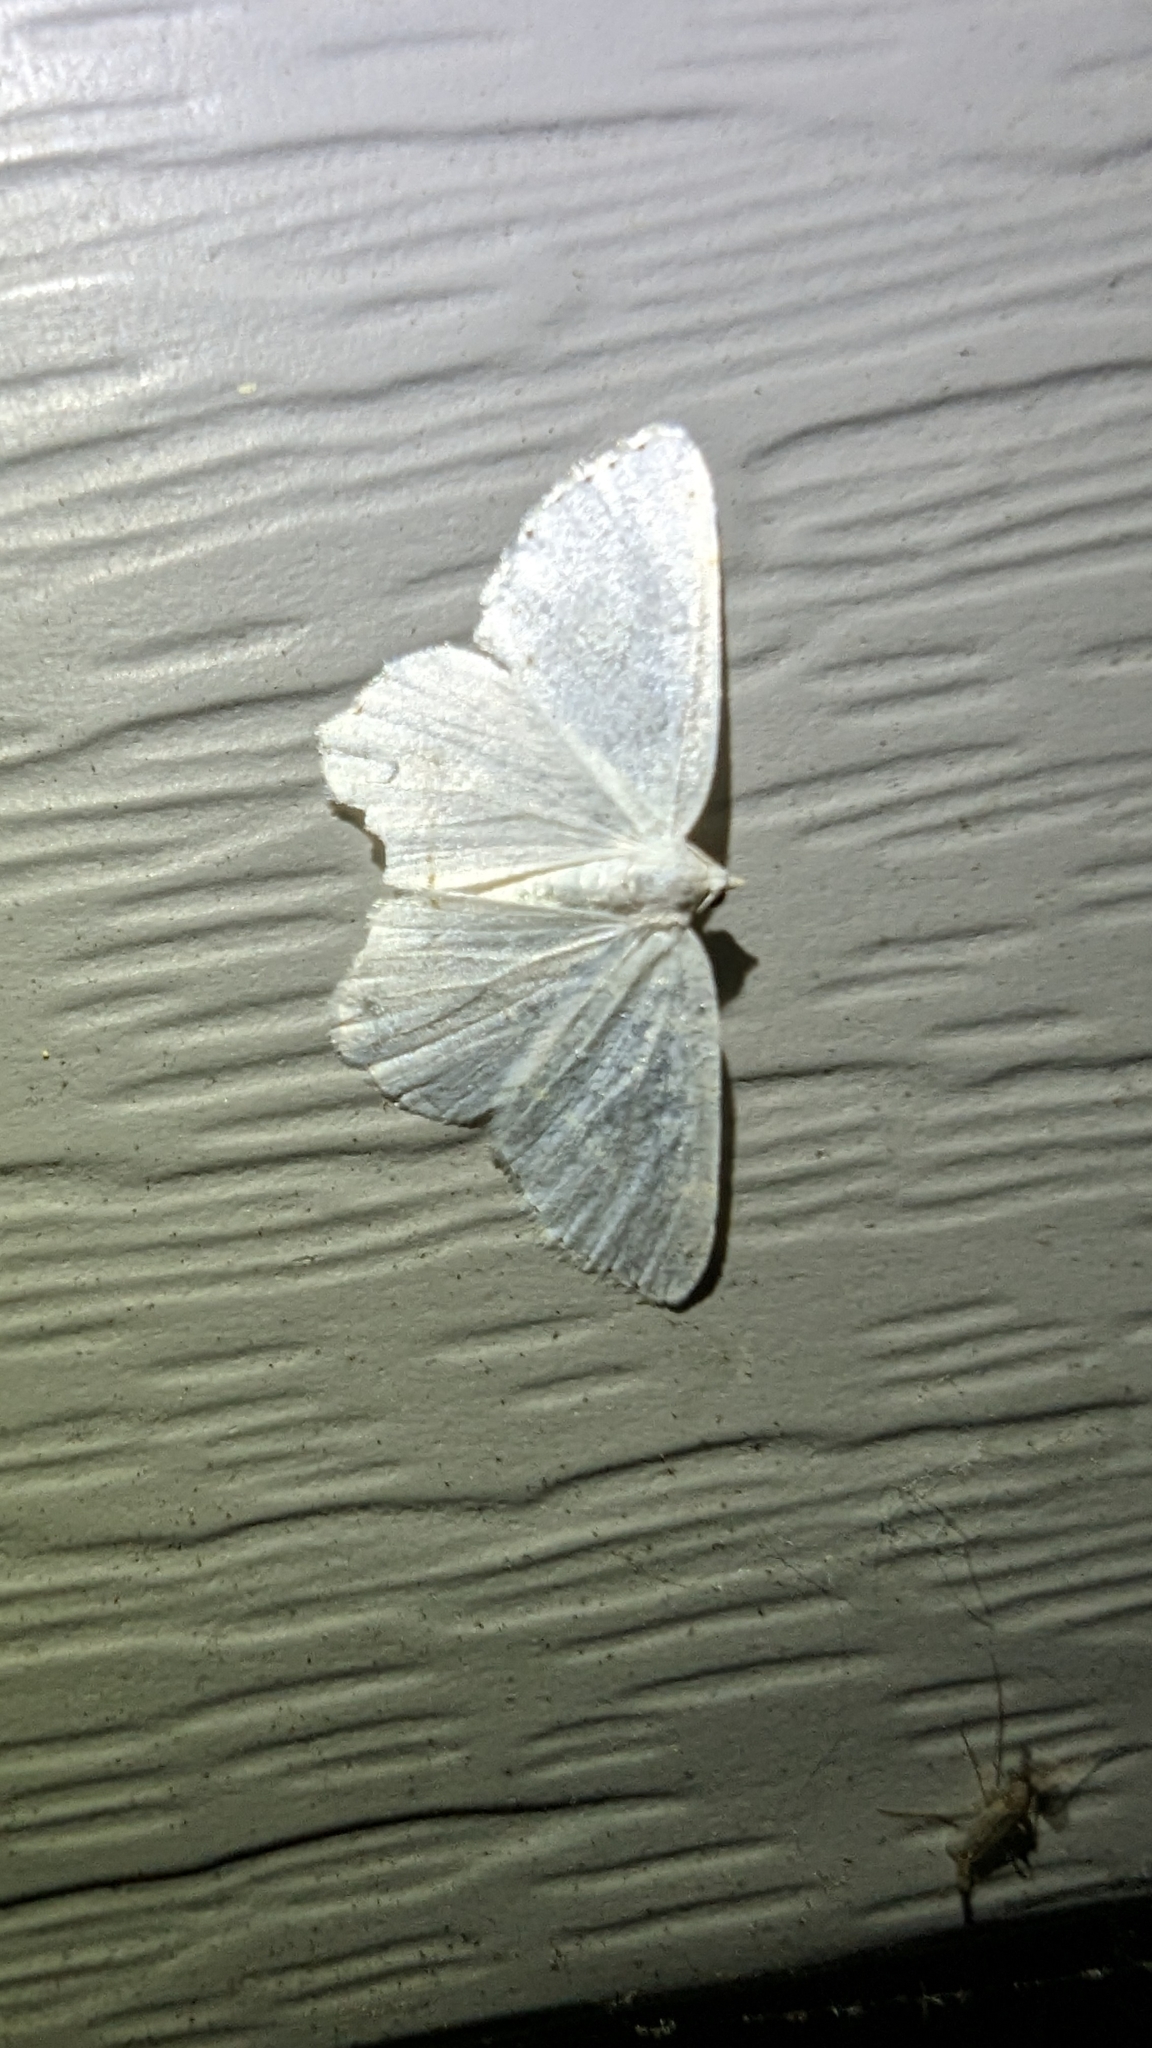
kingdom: Animalia
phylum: Arthropoda
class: Insecta
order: Lepidoptera
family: Geometridae
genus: Macaria
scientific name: Macaria pustularia
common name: Lesser maple spanworm moth
